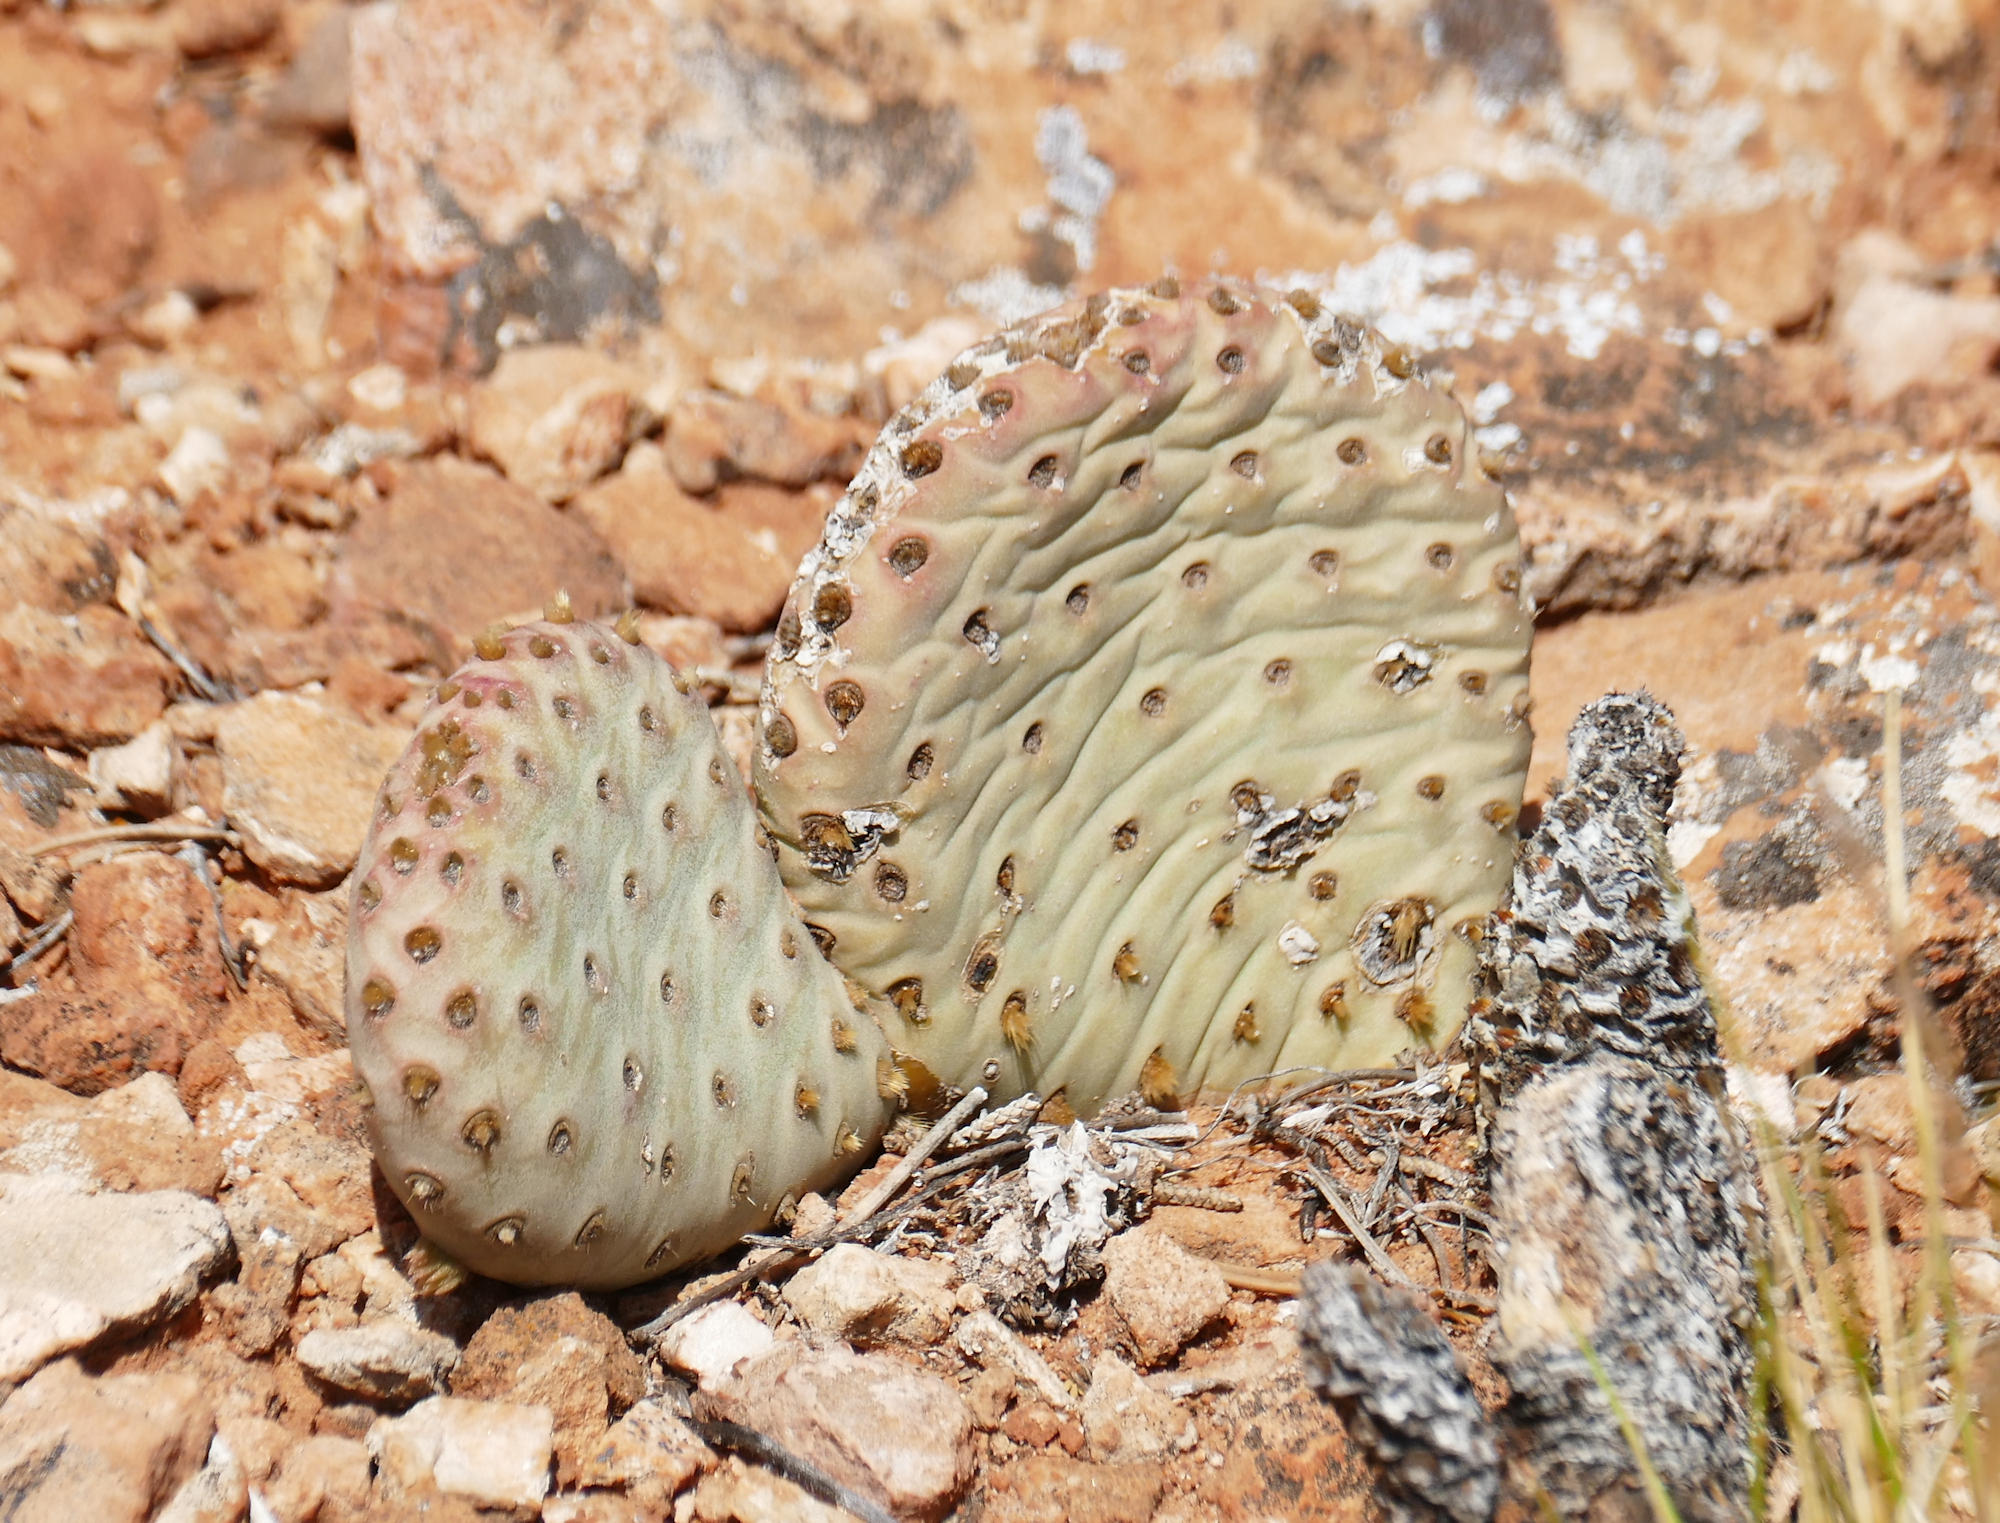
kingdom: Plantae
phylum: Tracheophyta
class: Magnoliopsida
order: Caryophyllales
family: Cactaceae
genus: Opuntia
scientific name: Opuntia aurea
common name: Golden prickly-pear
